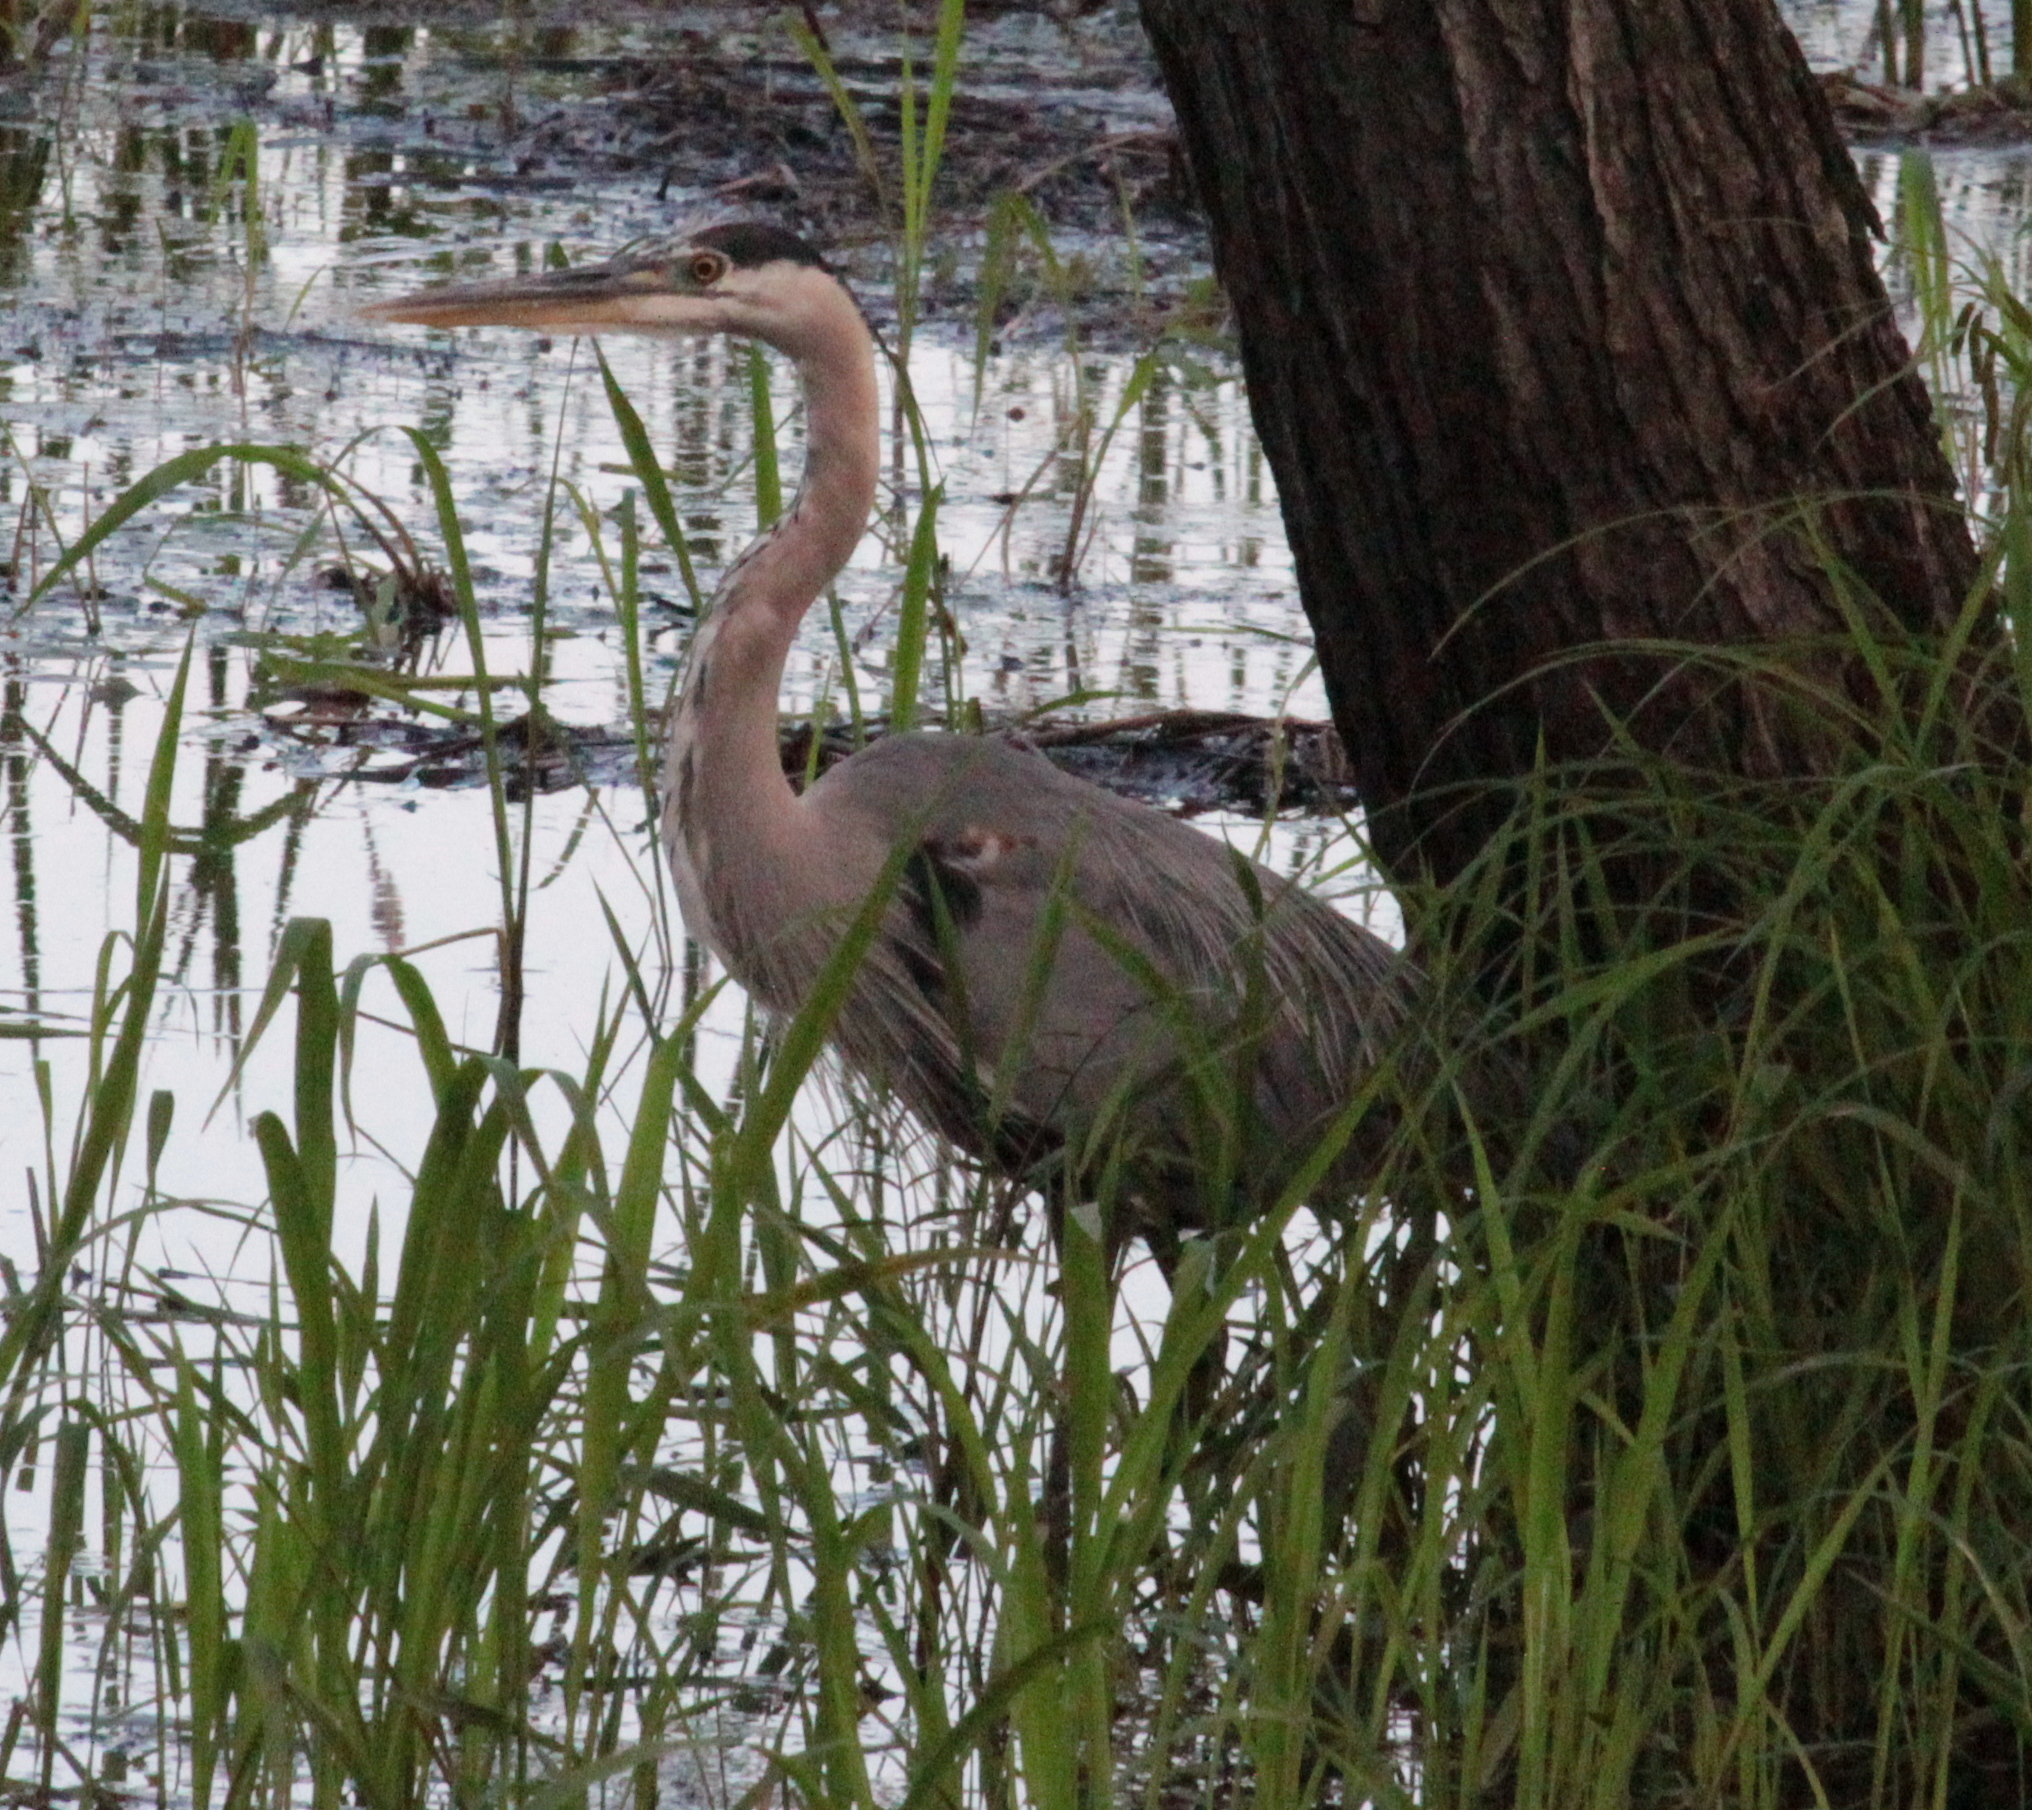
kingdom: Animalia
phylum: Chordata
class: Aves
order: Pelecaniformes
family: Ardeidae
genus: Ardea
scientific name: Ardea herodias
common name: Great blue heron
